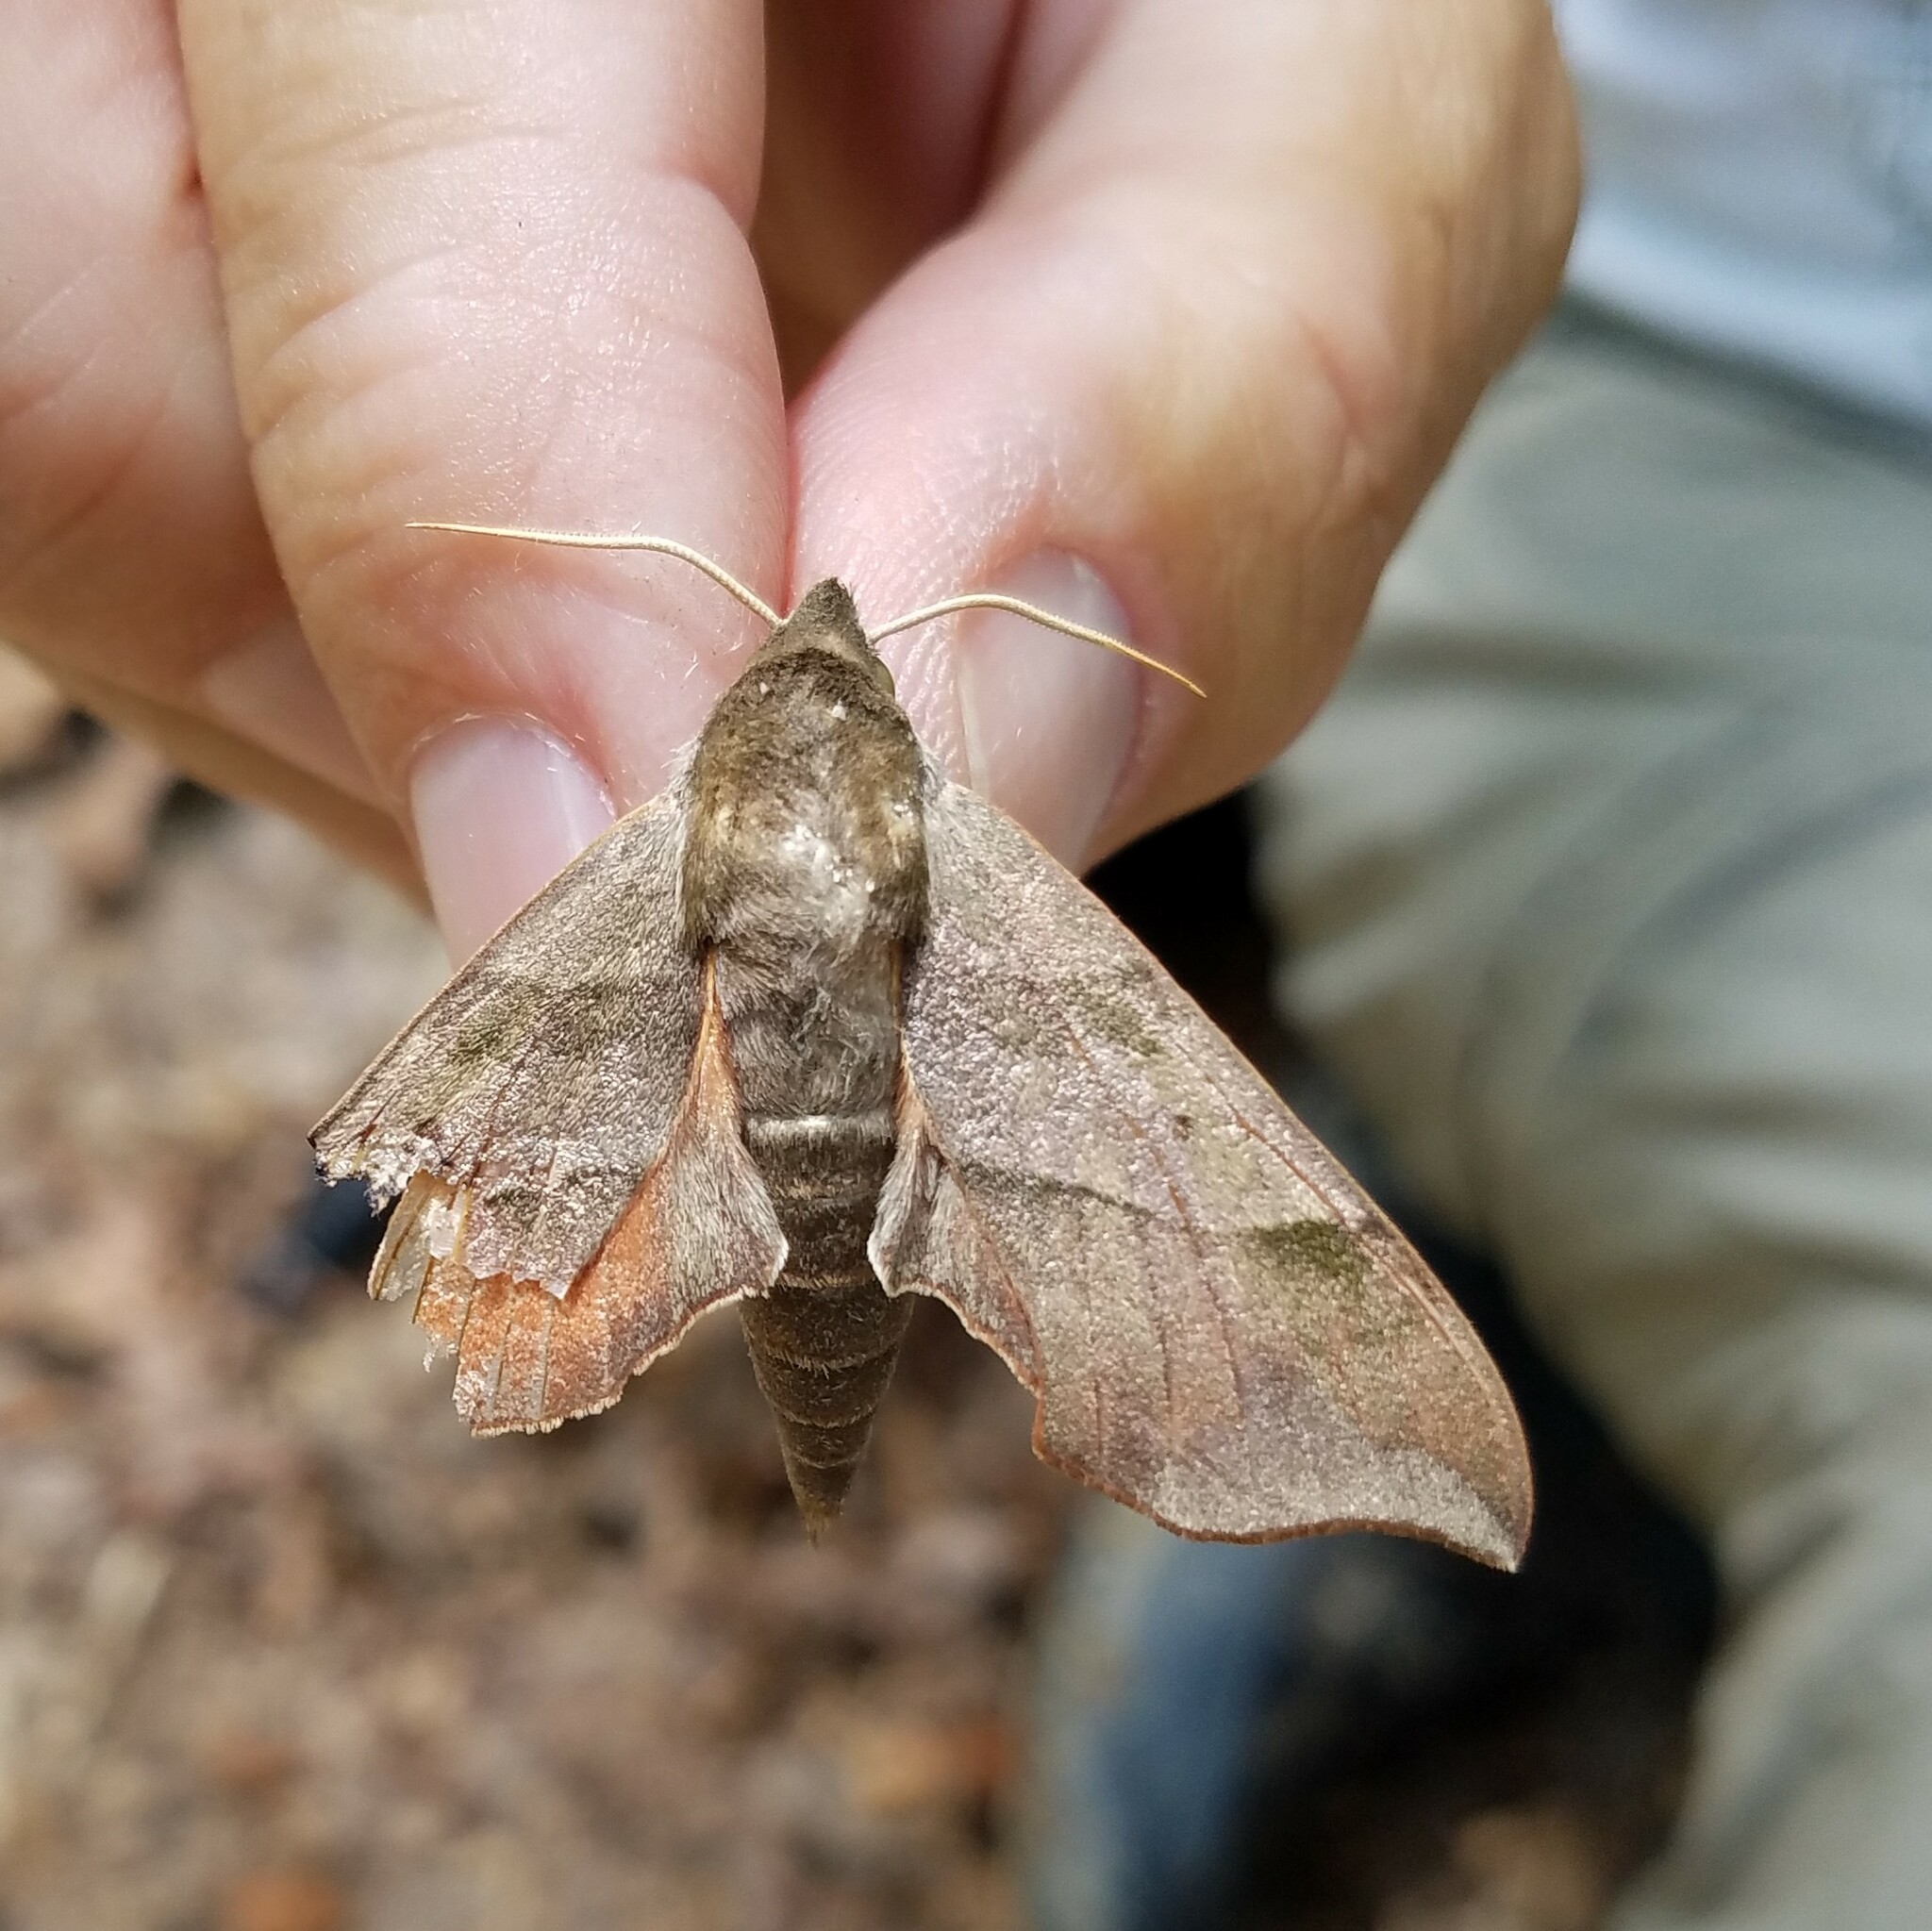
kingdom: Animalia
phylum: Arthropoda
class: Insecta
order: Lepidoptera
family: Sphingidae
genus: Darapsa
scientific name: Darapsa myron
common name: Hog sphinx
